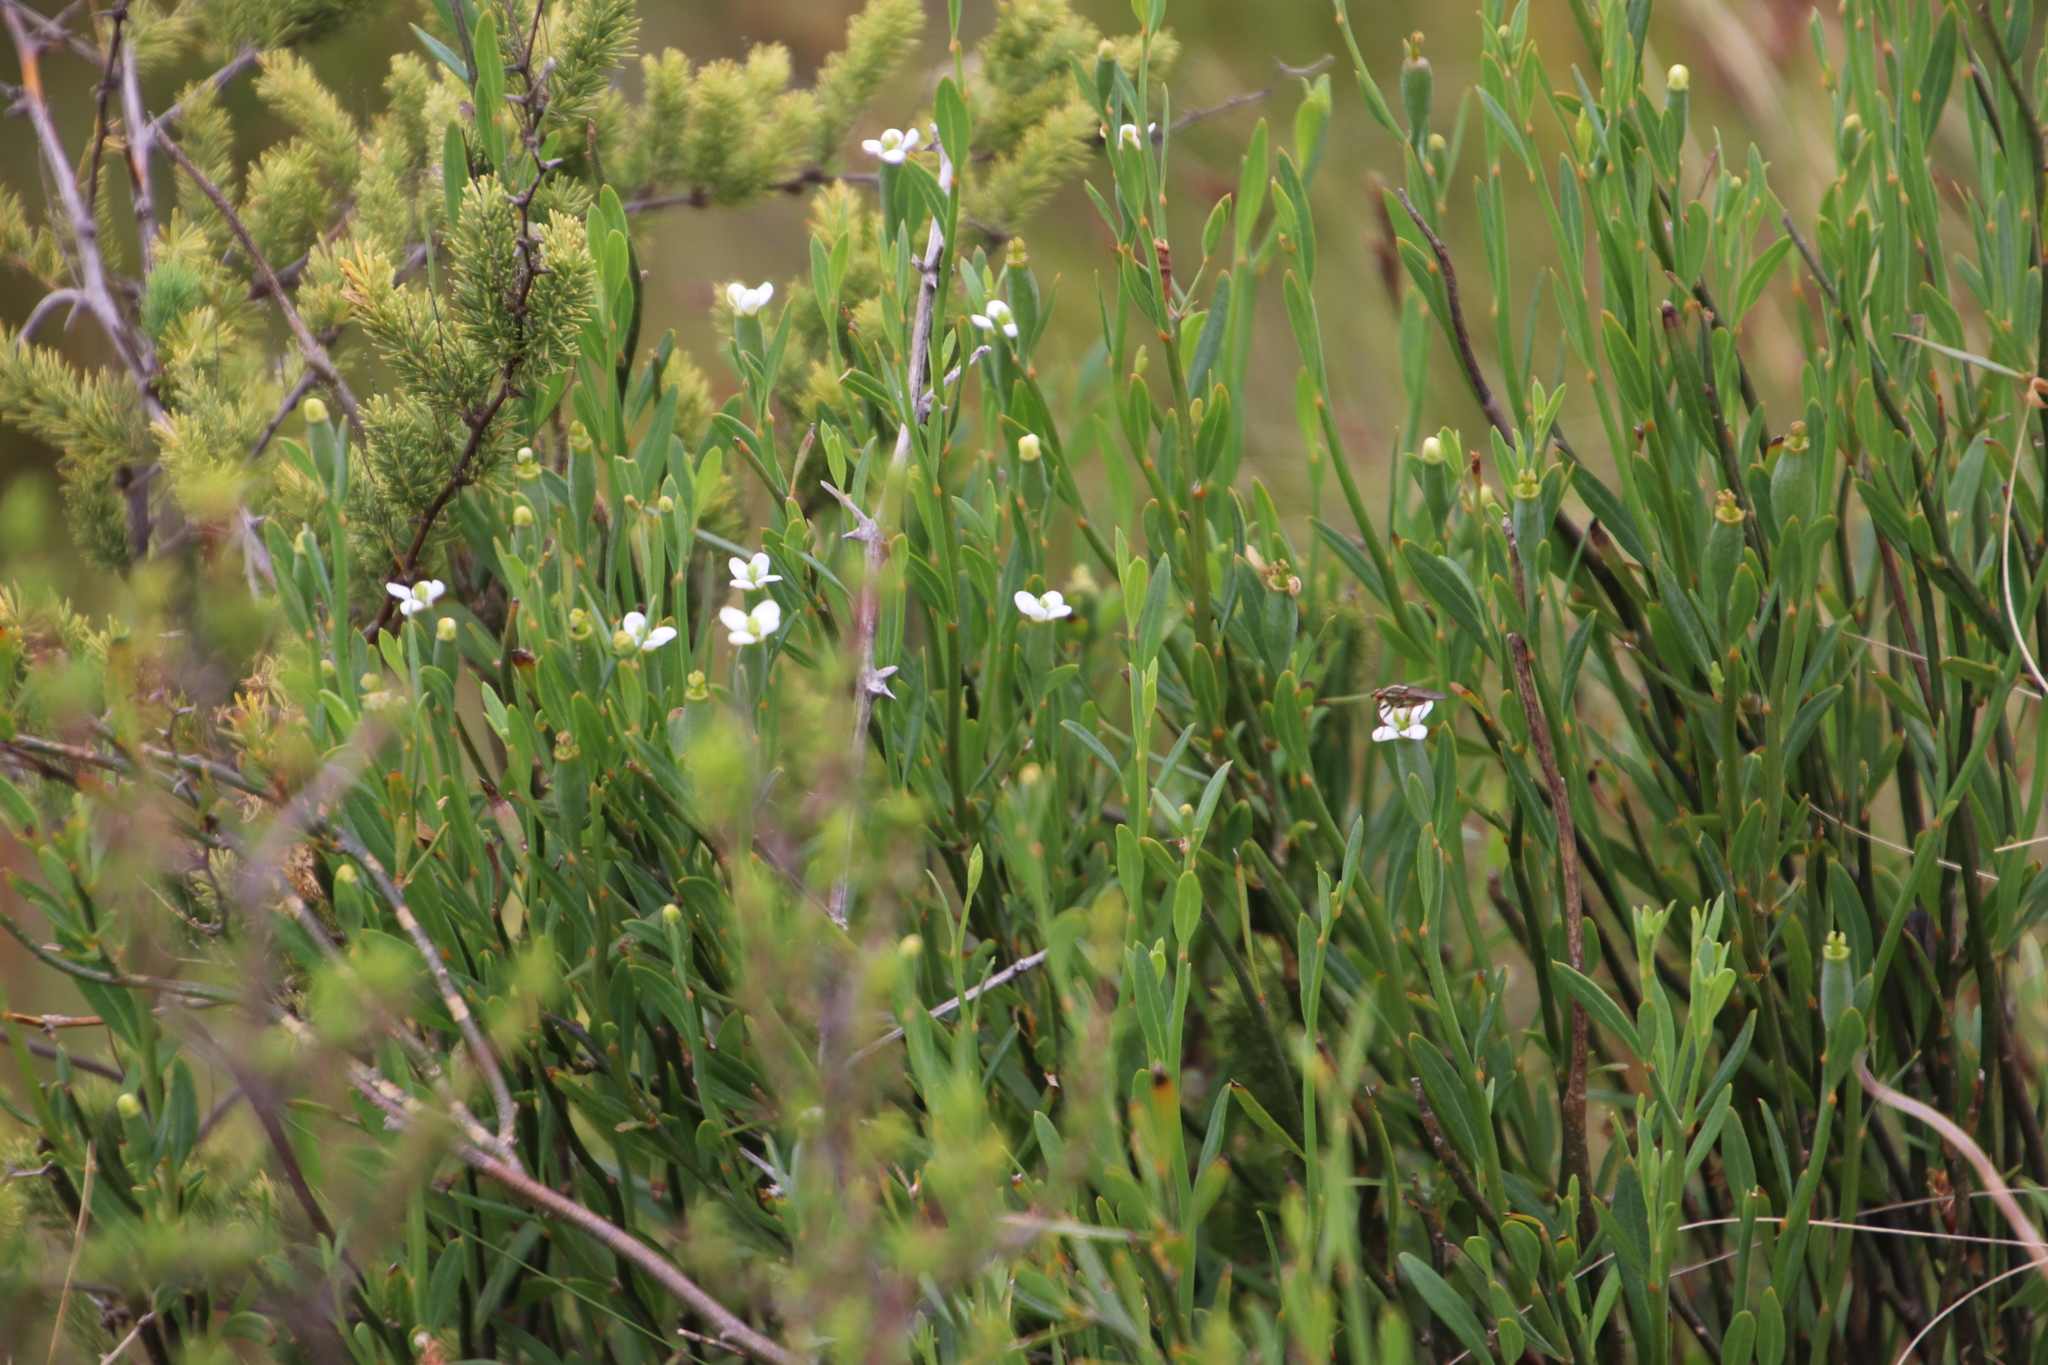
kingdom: Plantae
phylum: Tracheophyta
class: Magnoliopsida
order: Solanales
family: Montiniaceae
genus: Montinia
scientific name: Montinia caryophyllacea
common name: Wild clove-bush
